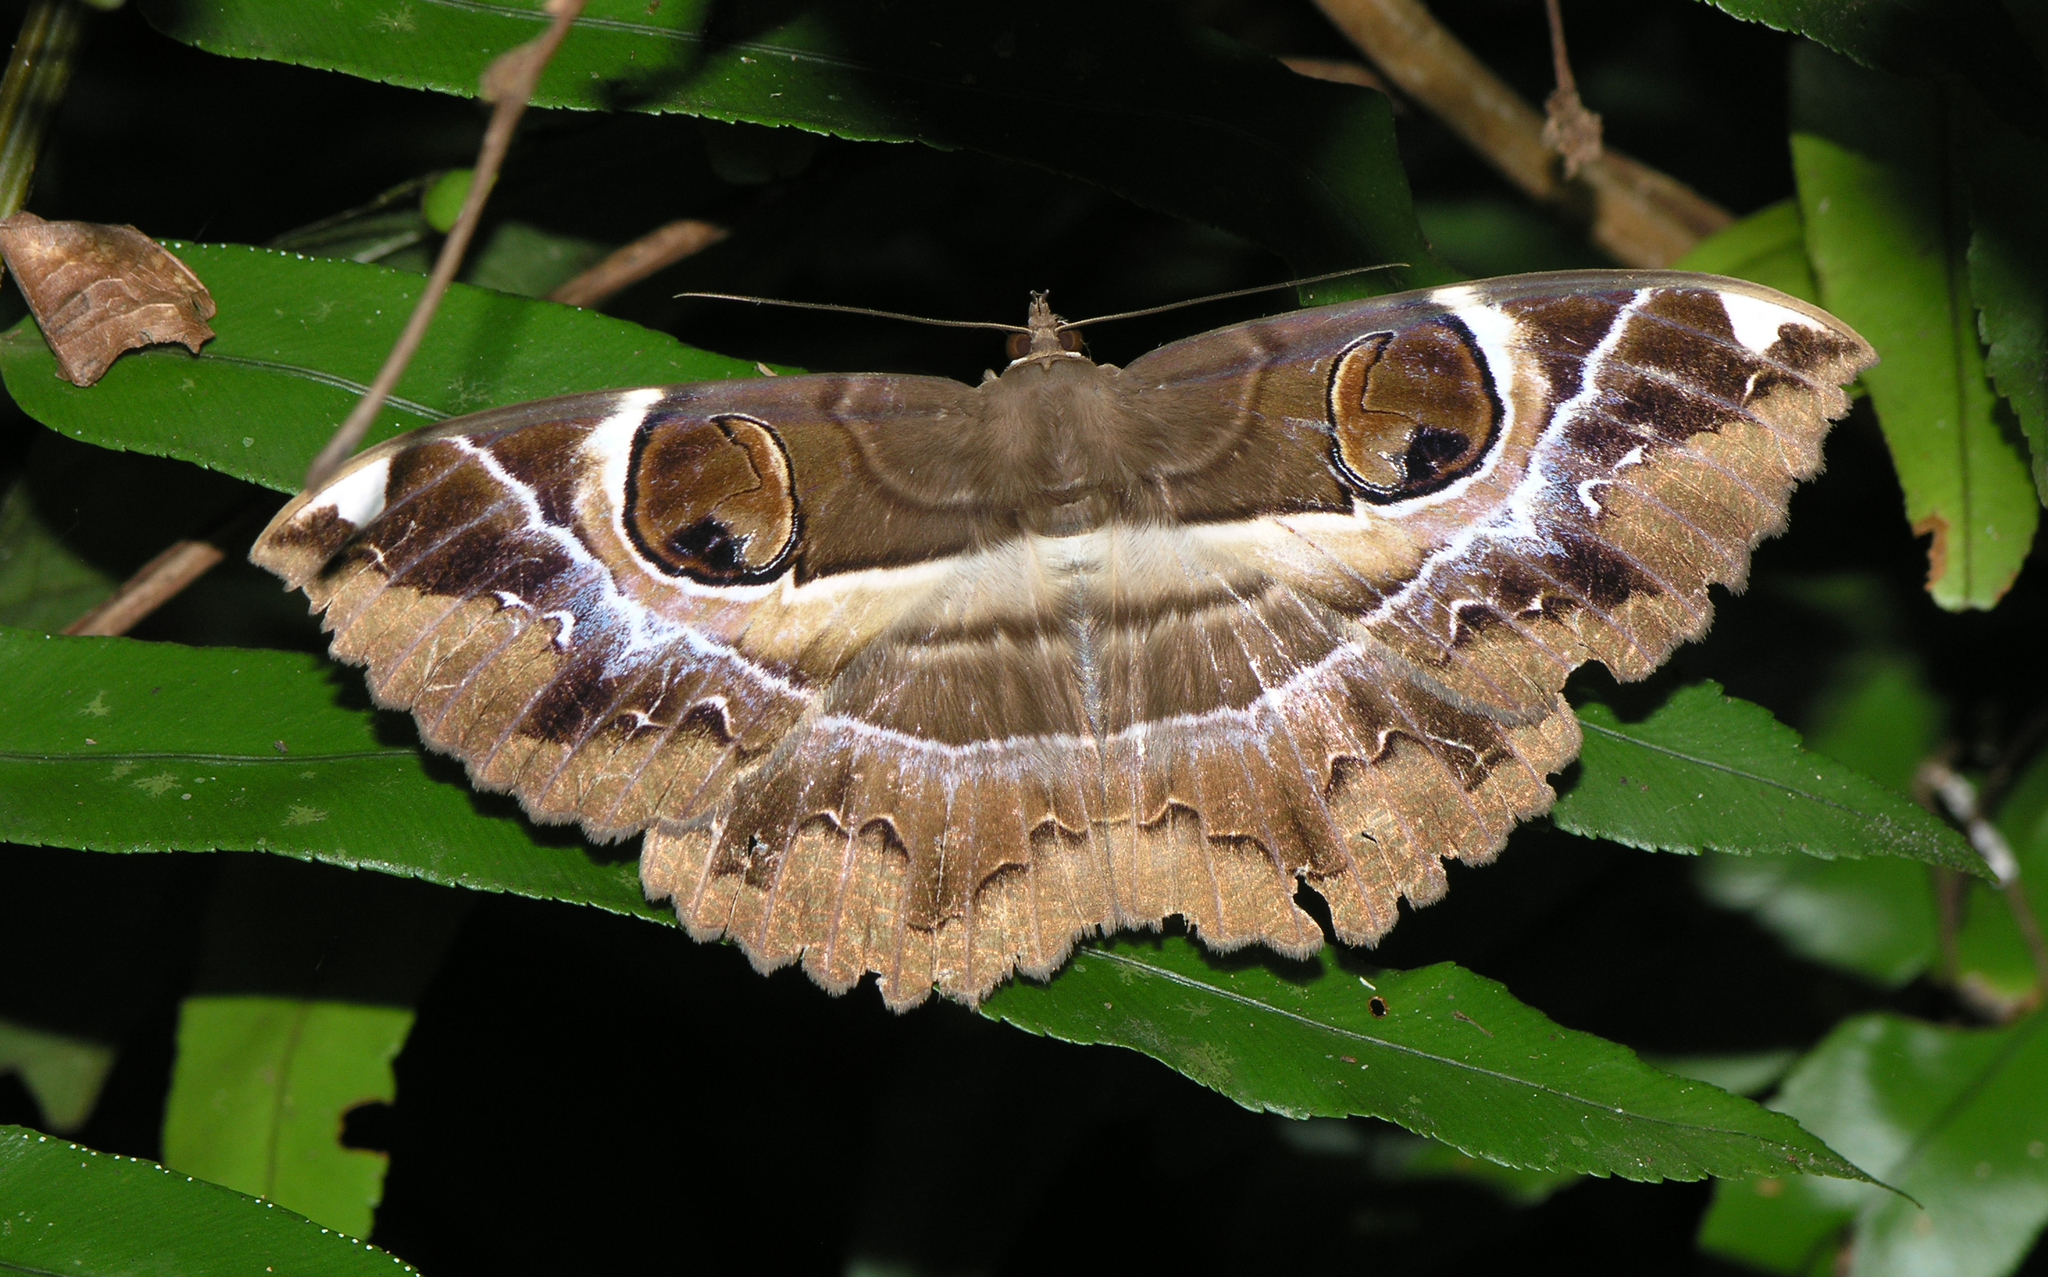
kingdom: Animalia
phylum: Arthropoda
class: Insecta
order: Lepidoptera
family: Erebidae
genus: Erebus
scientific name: Erebus ephesperis
